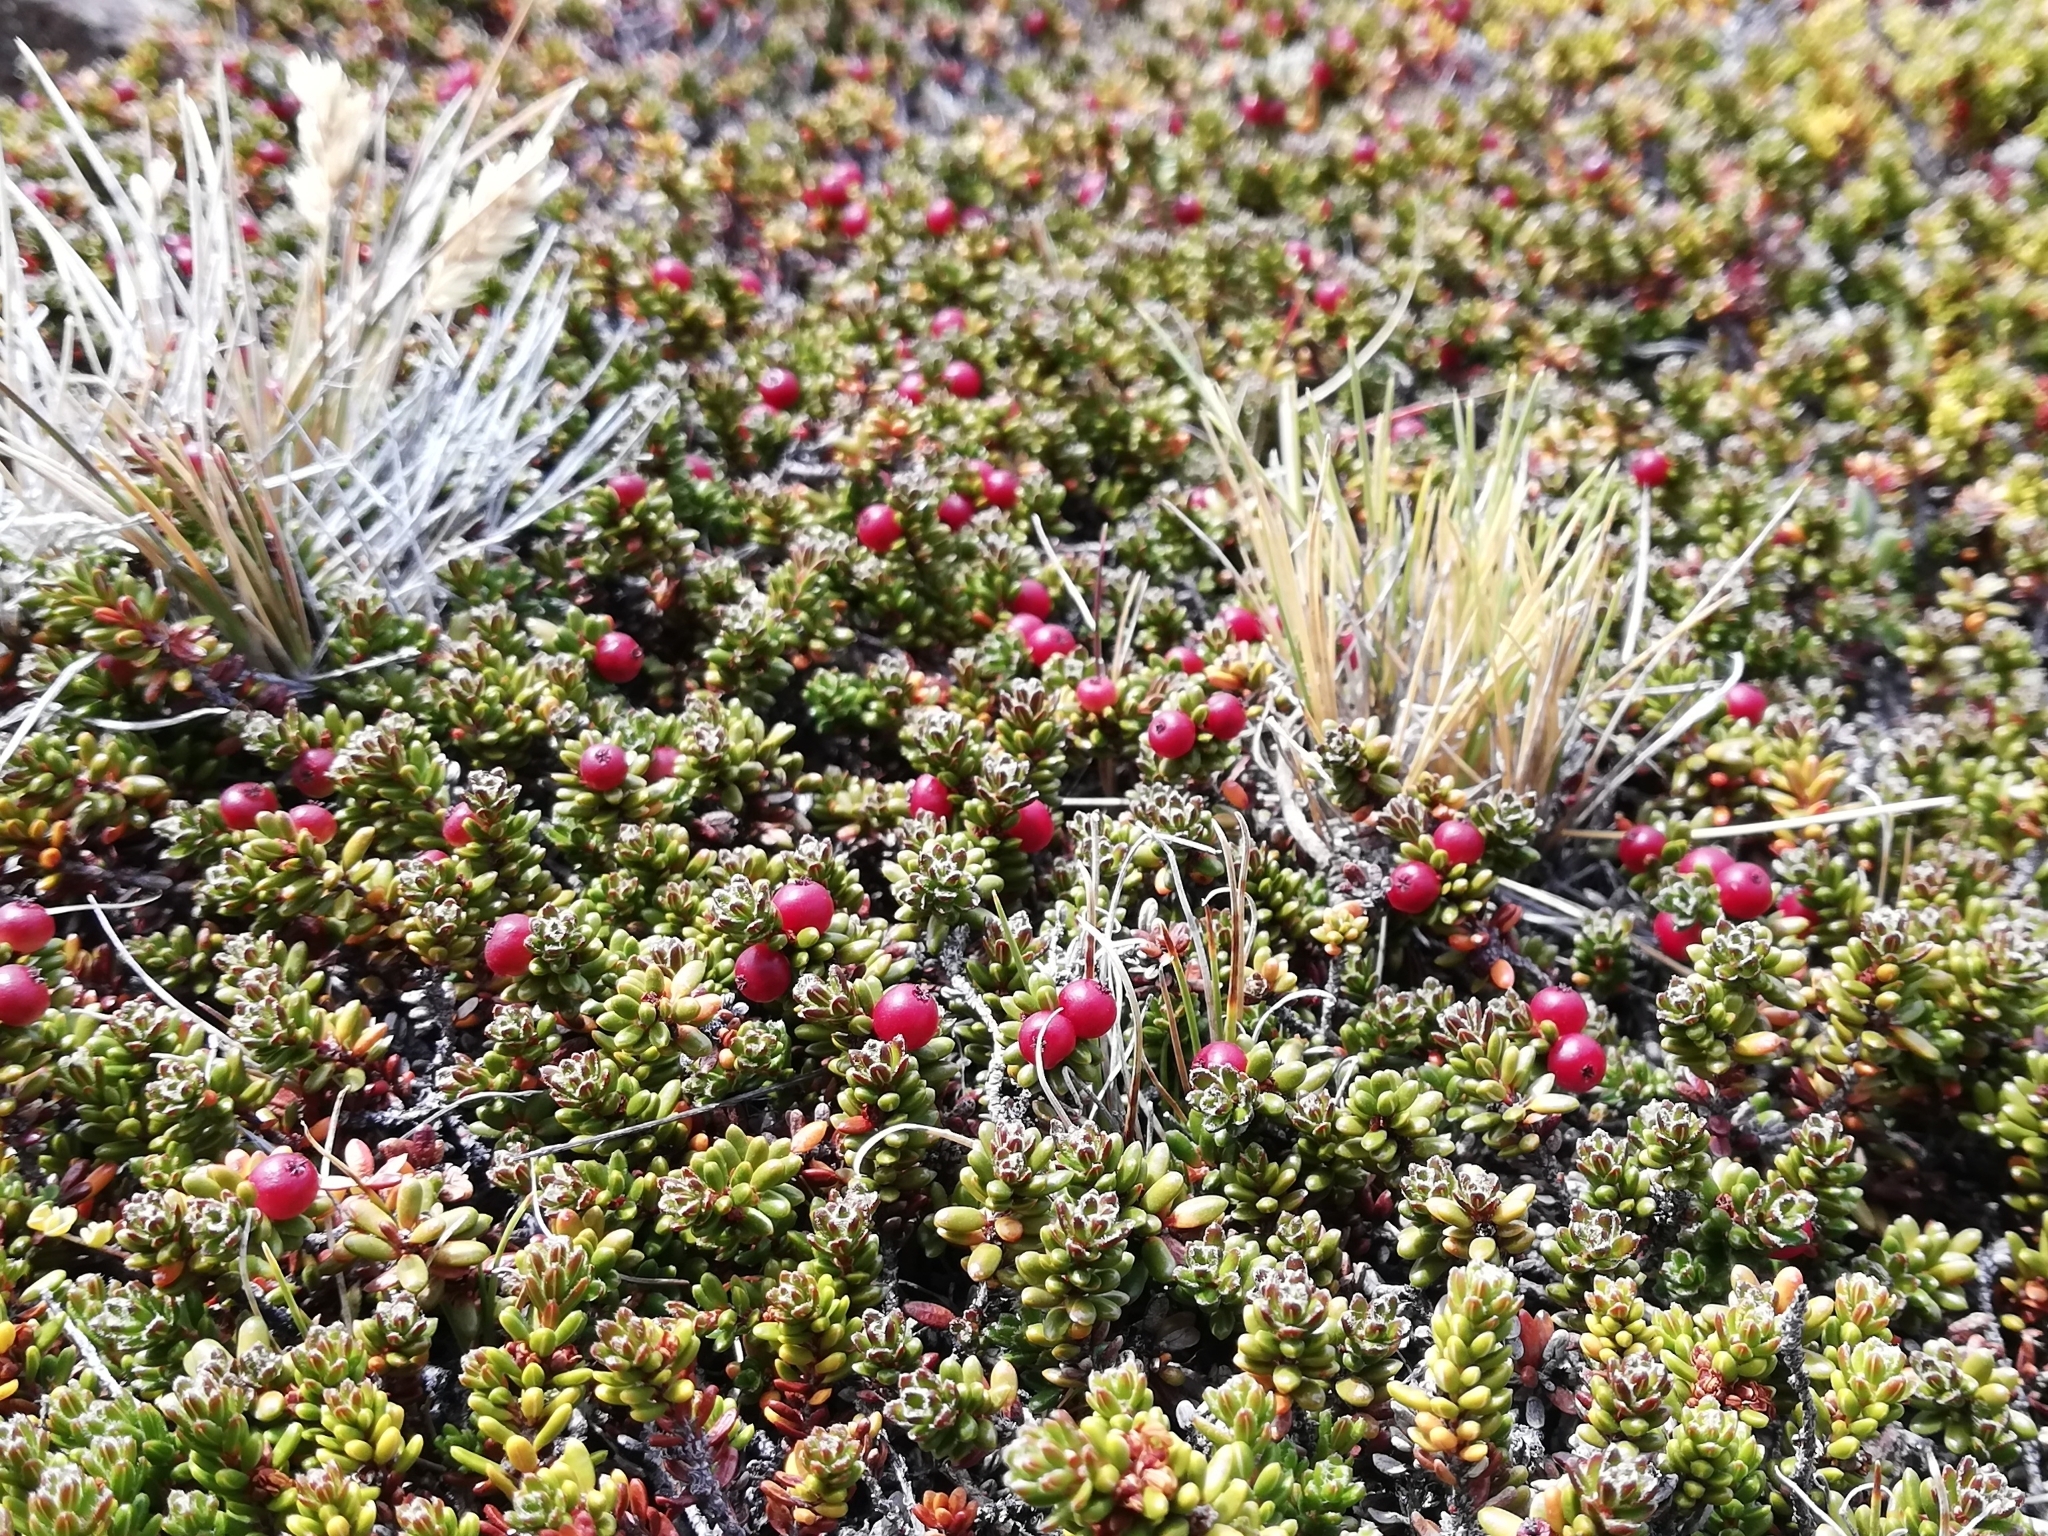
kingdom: Plantae
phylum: Tracheophyta
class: Magnoliopsida
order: Ericales
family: Ericaceae
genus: Empetrum
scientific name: Empetrum rubrum
